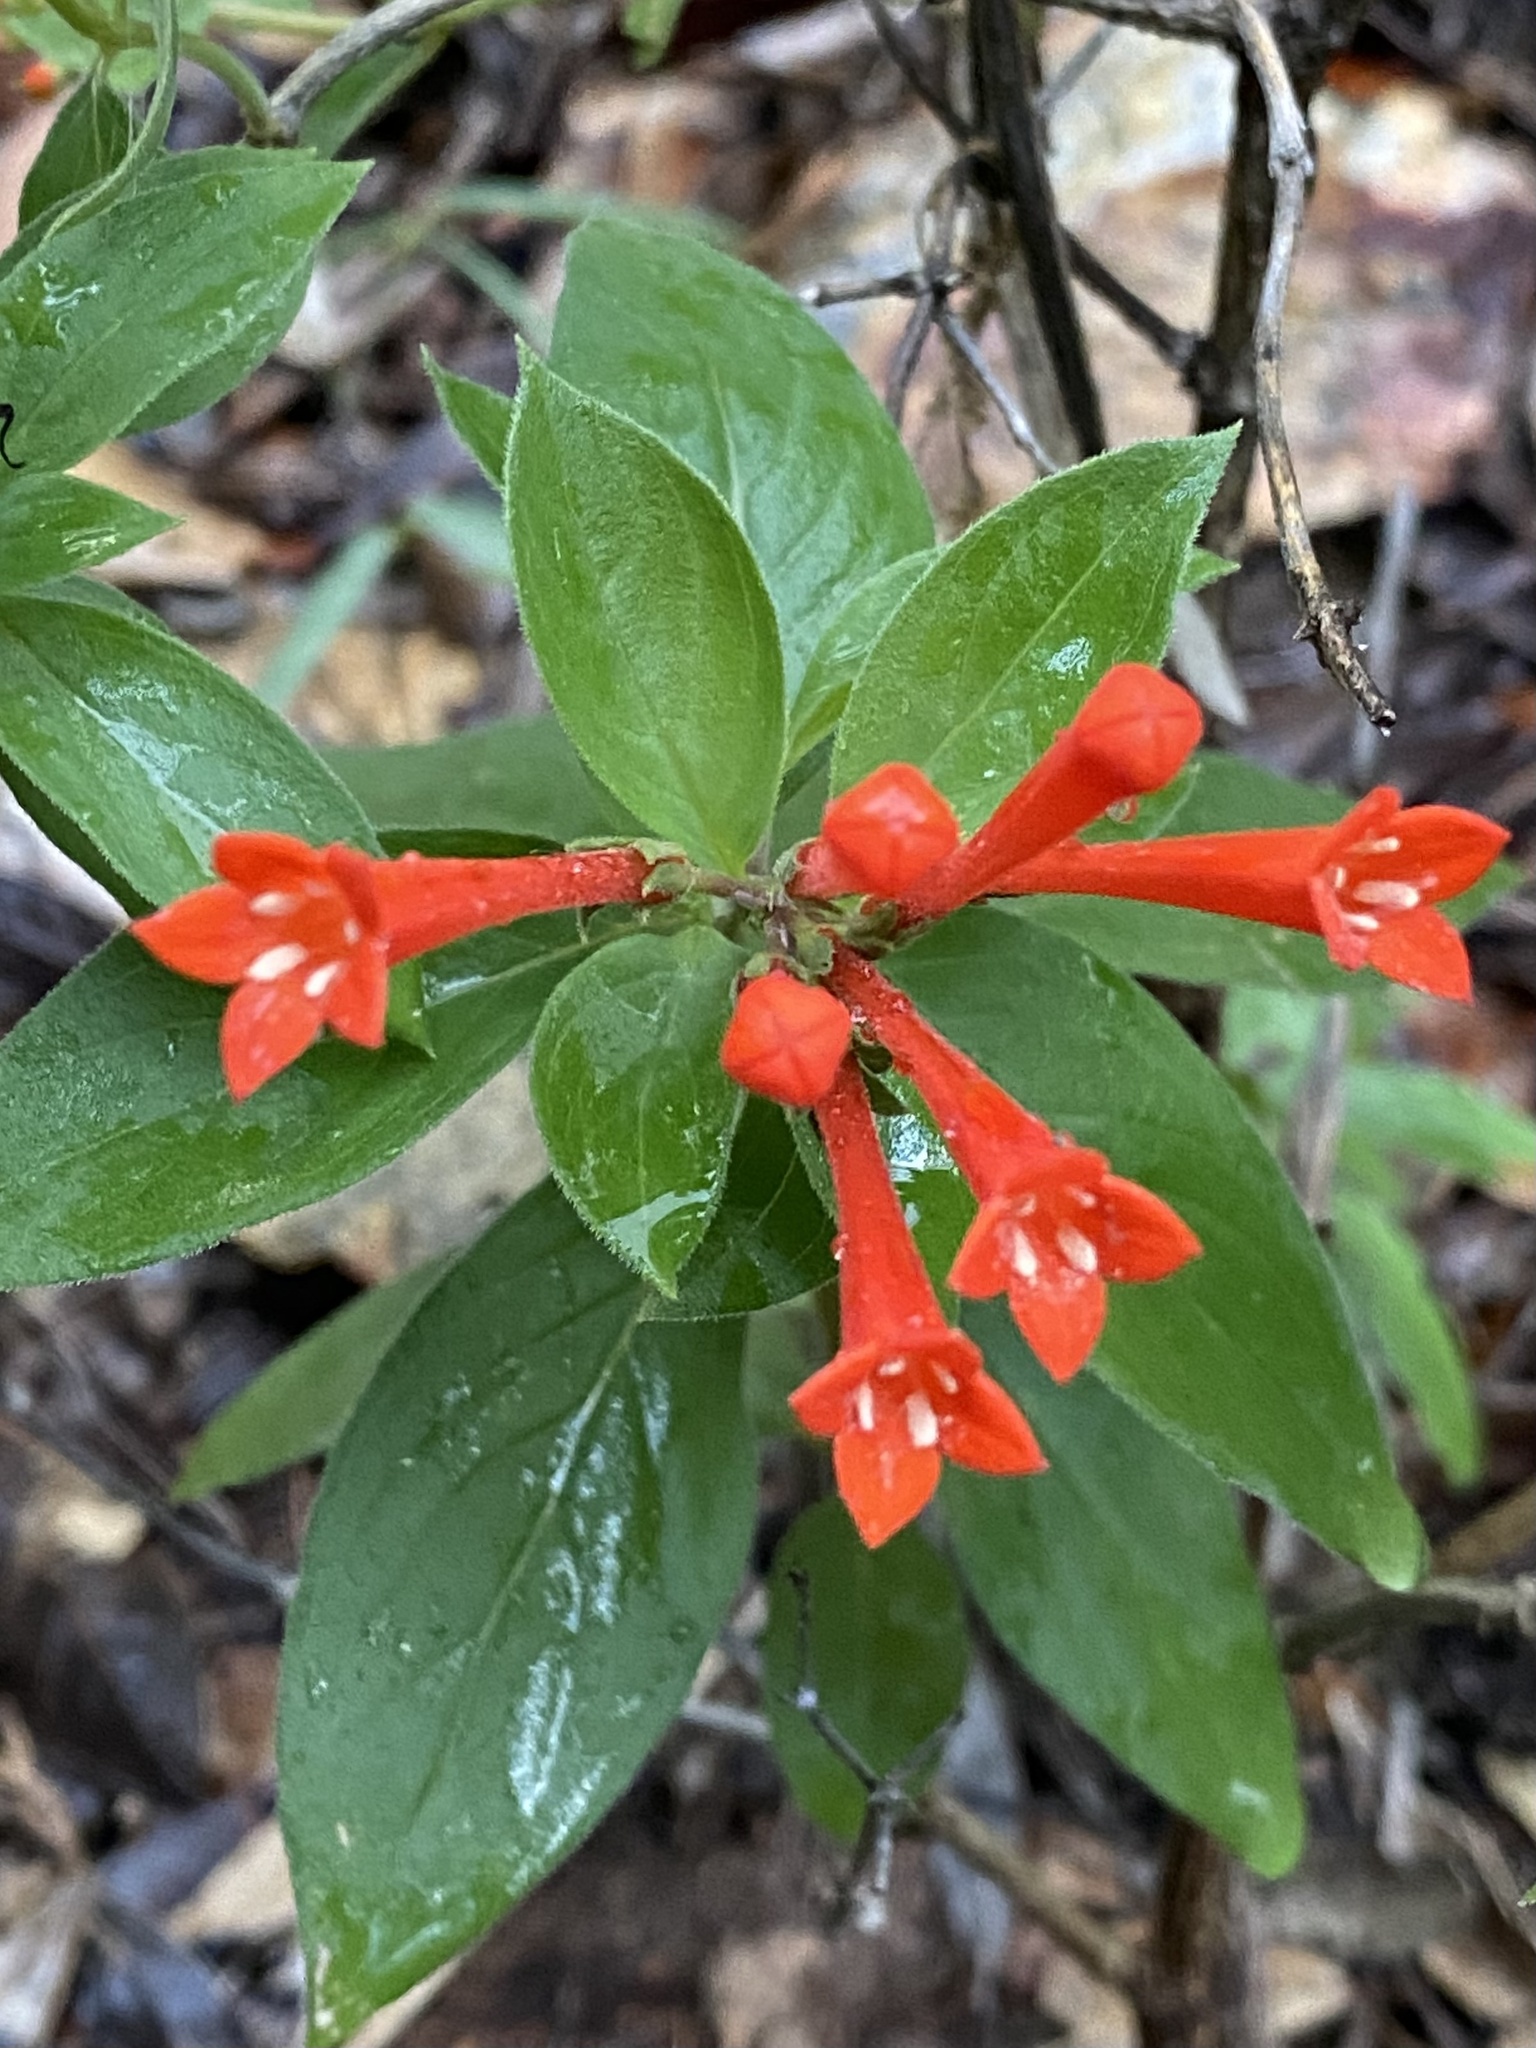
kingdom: Plantae
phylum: Tracheophyta
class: Magnoliopsida
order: Gentianales
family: Rubiaceae
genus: Bouvardia
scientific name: Bouvardia ternifolia
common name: Scarlet bouvardia
